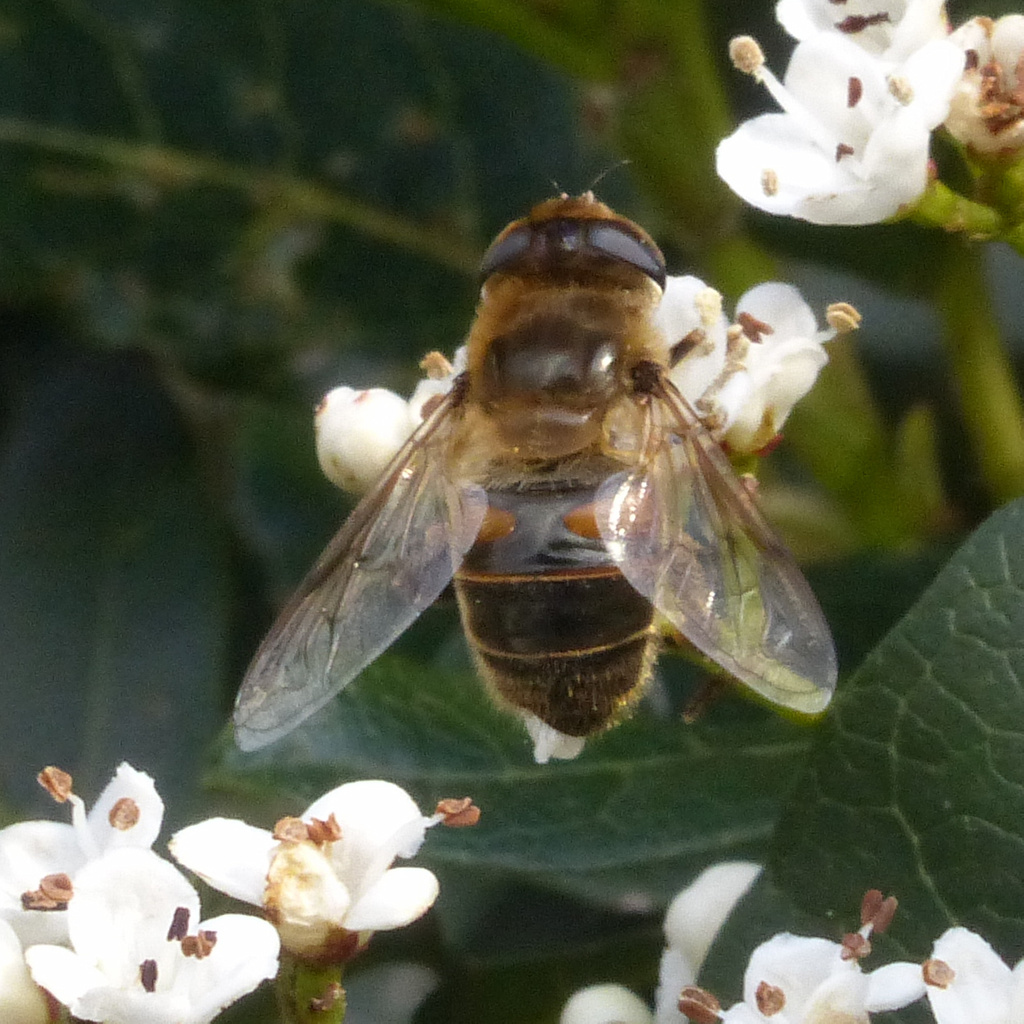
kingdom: Animalia
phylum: Arthropoda
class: Insecta
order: Diptera
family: Syrphidae
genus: Eristalis
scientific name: Eristalis tenax
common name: Drone fly
